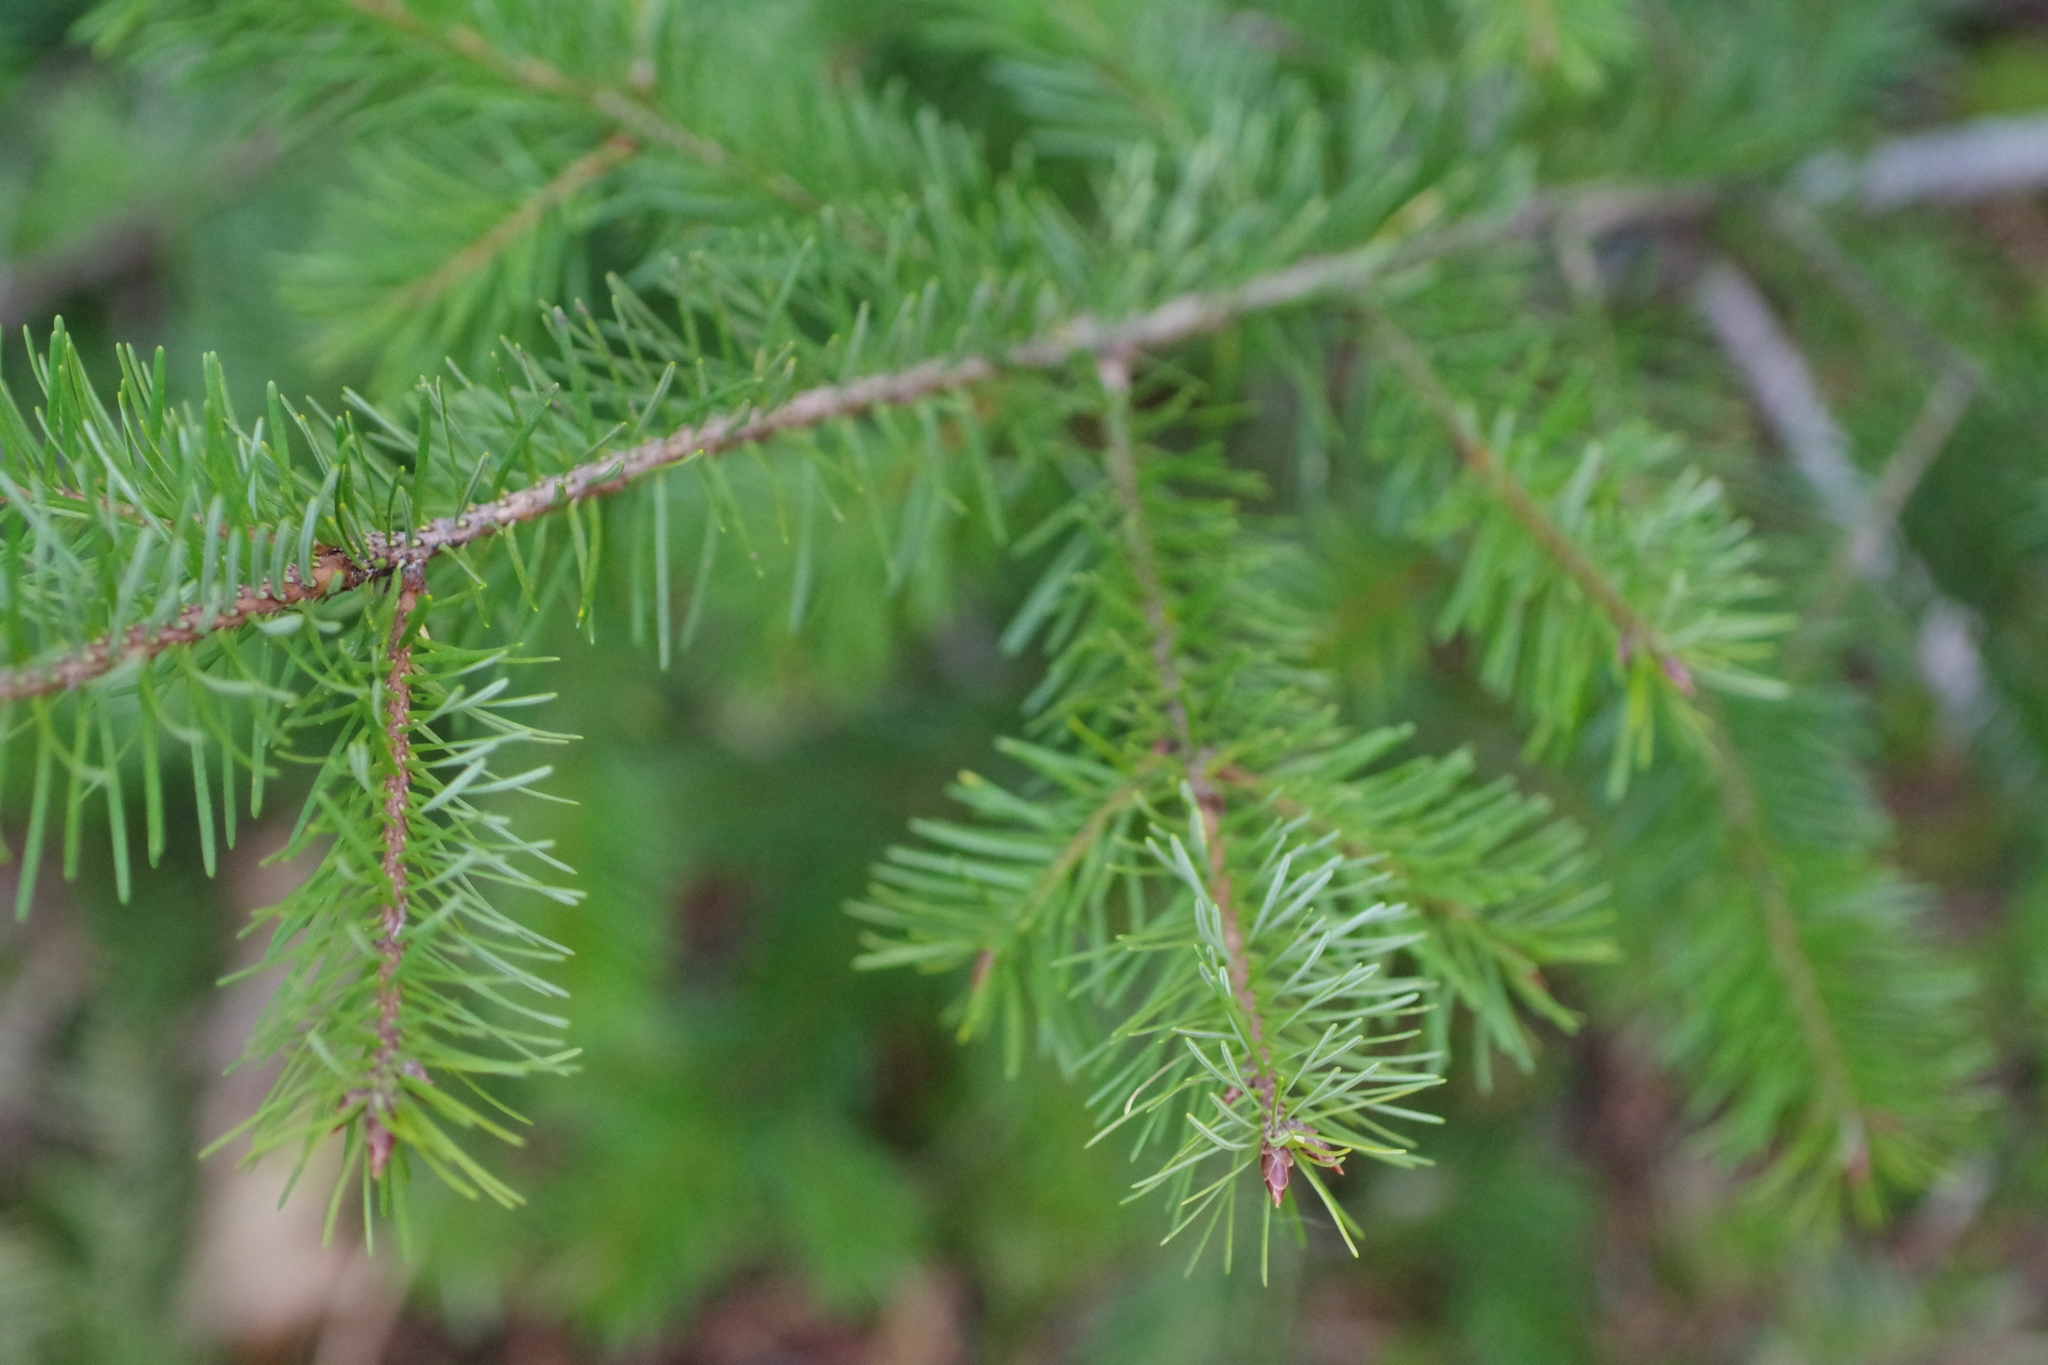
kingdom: Plantae
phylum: Tracheophyta
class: Pinopsida
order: Pinales
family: Pinaceae
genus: Pseudotsuga
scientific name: Pseudotsuga menziesii
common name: Douglas fir
